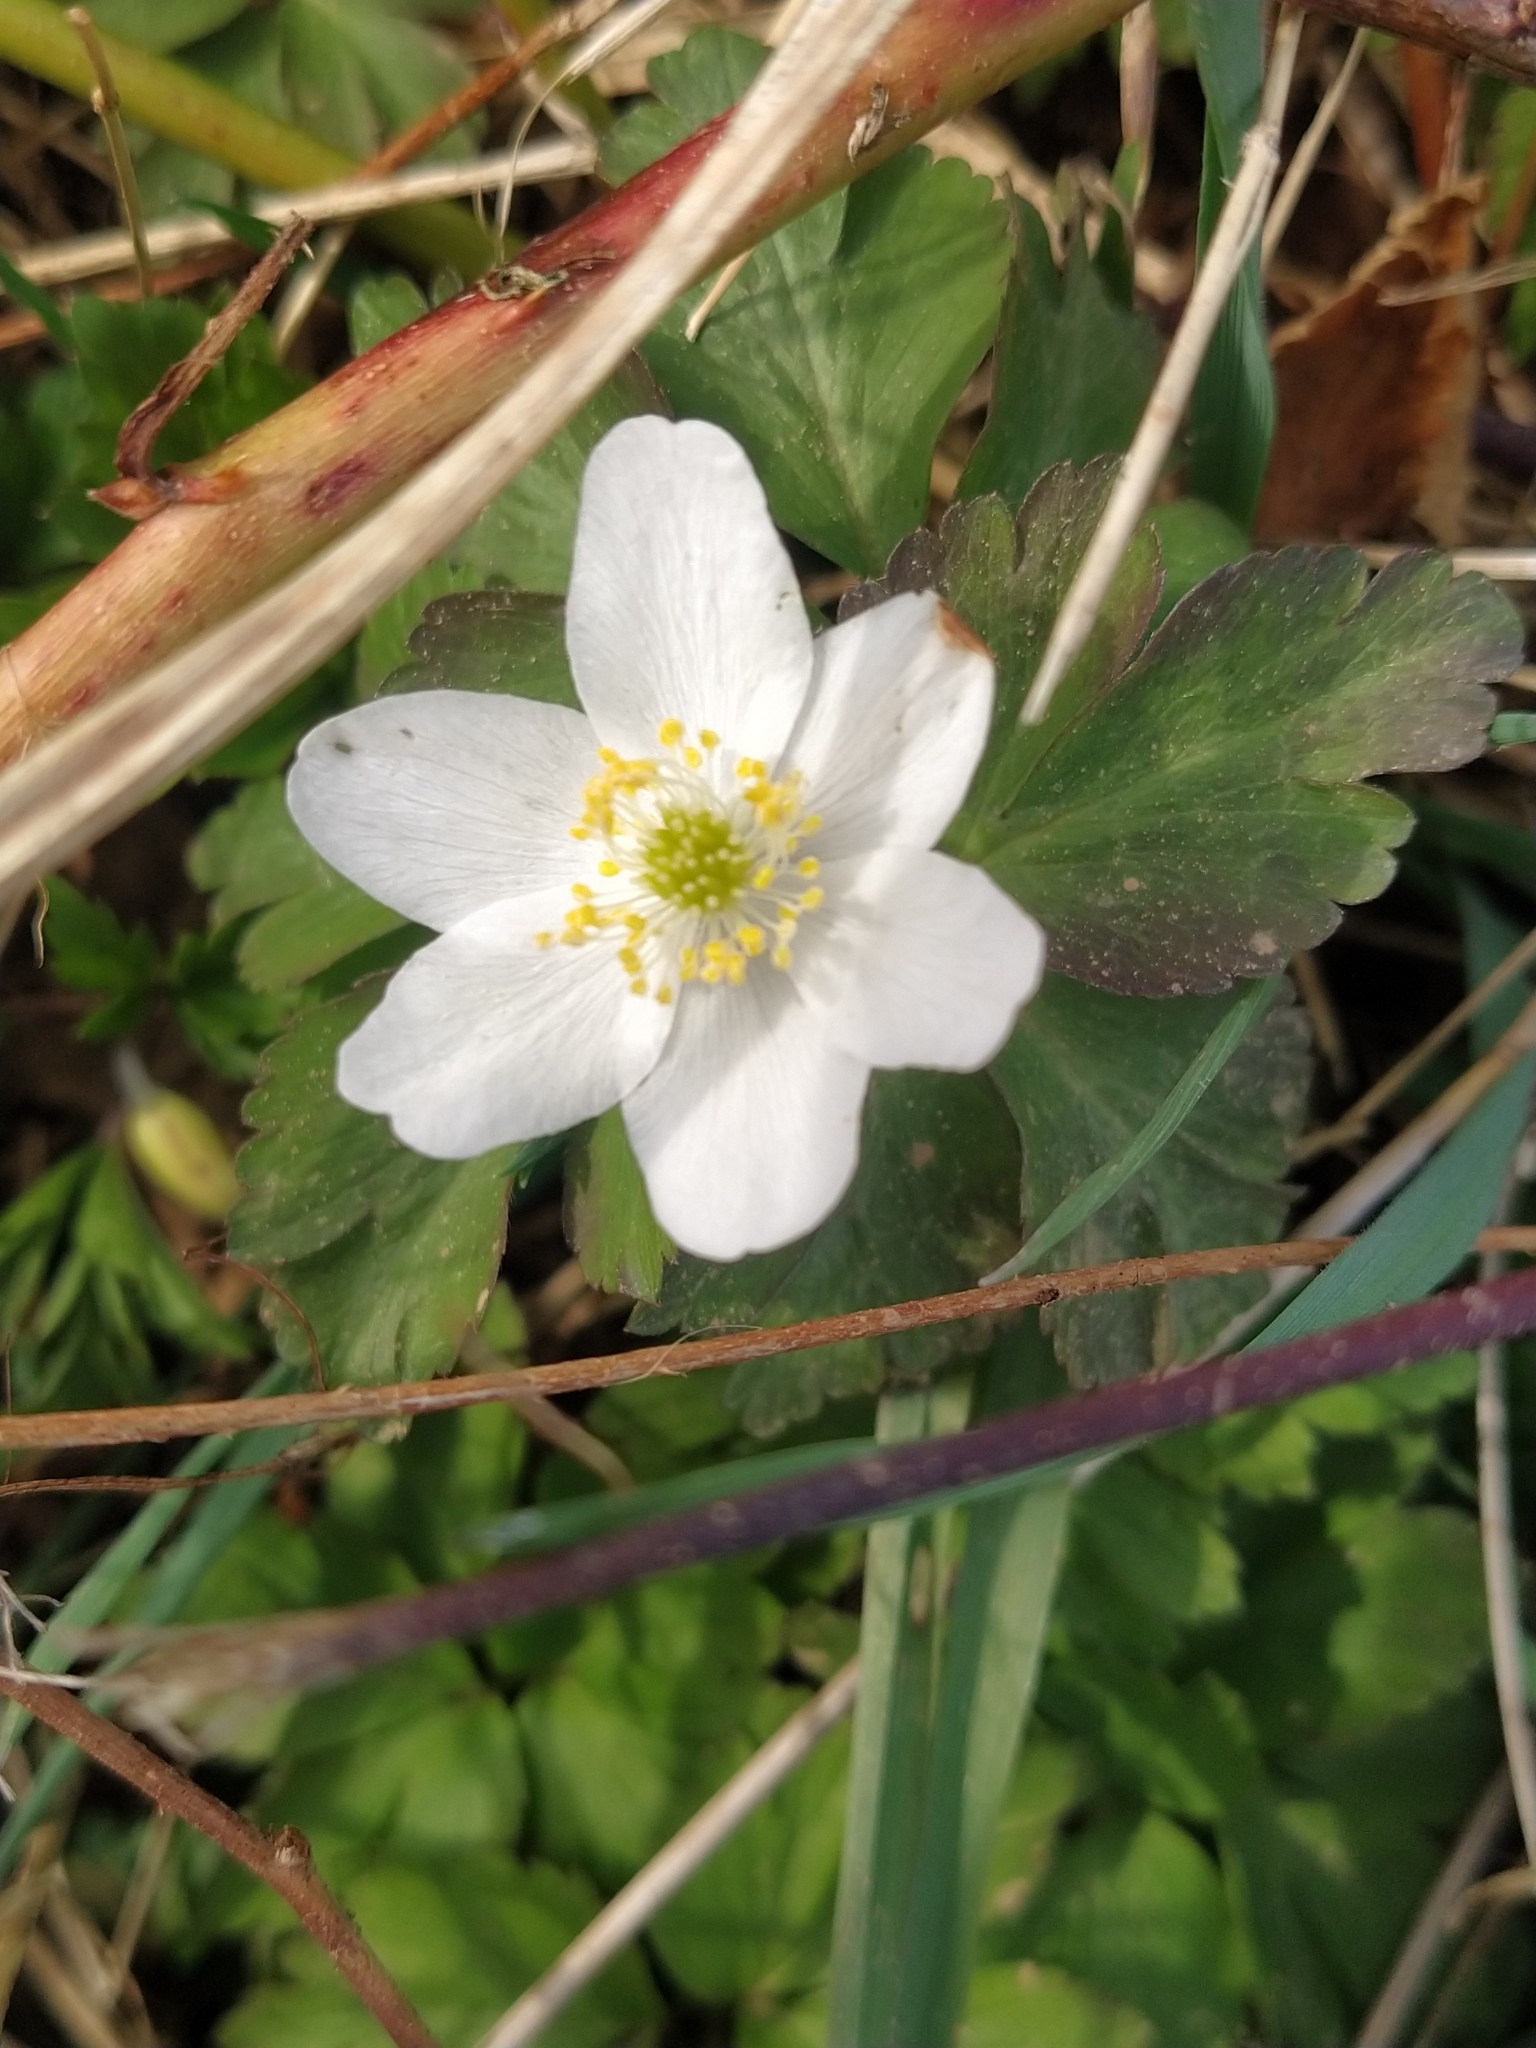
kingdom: Plantae
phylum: Tracheophyta
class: Magnoliopsida
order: Ranunculales
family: Ranunculaceae
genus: Anemone
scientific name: Anemone nemorosa
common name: Wood anemone
